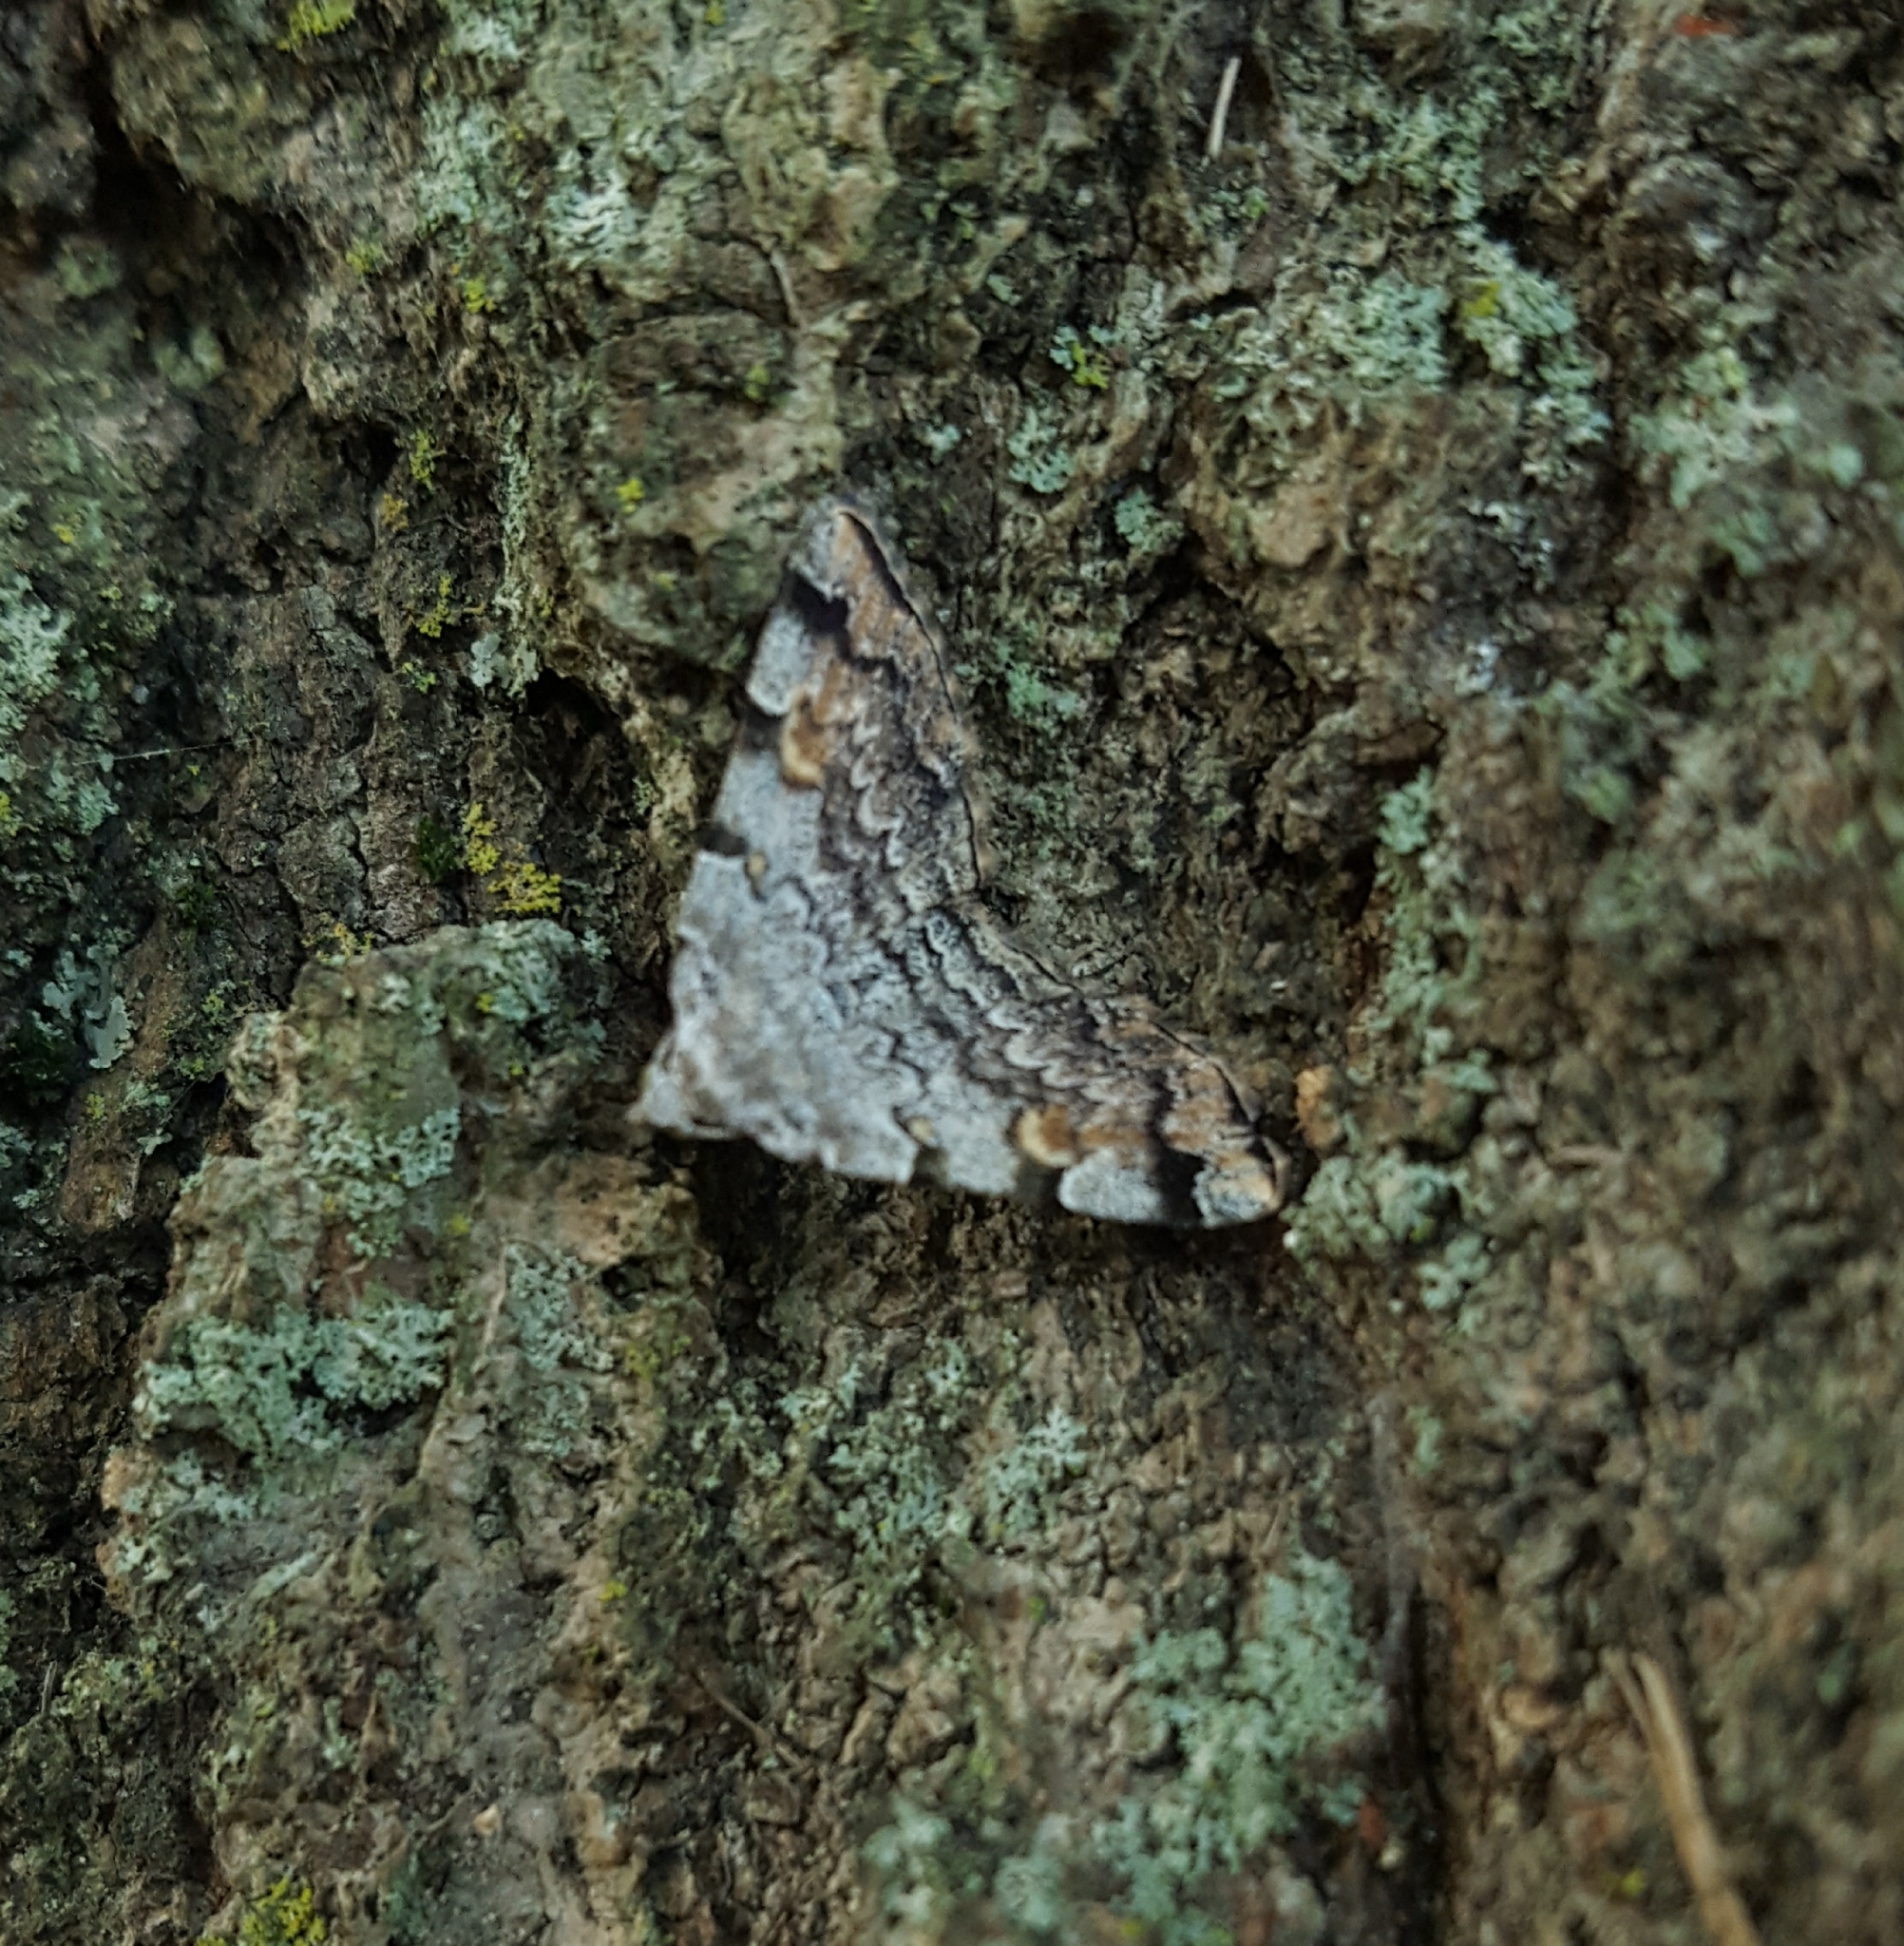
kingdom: Animalia
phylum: Arthropoda
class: Insecta
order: Lepidoptera
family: Erebidae
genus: Idia
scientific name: Idia americalis
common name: American idia moth
